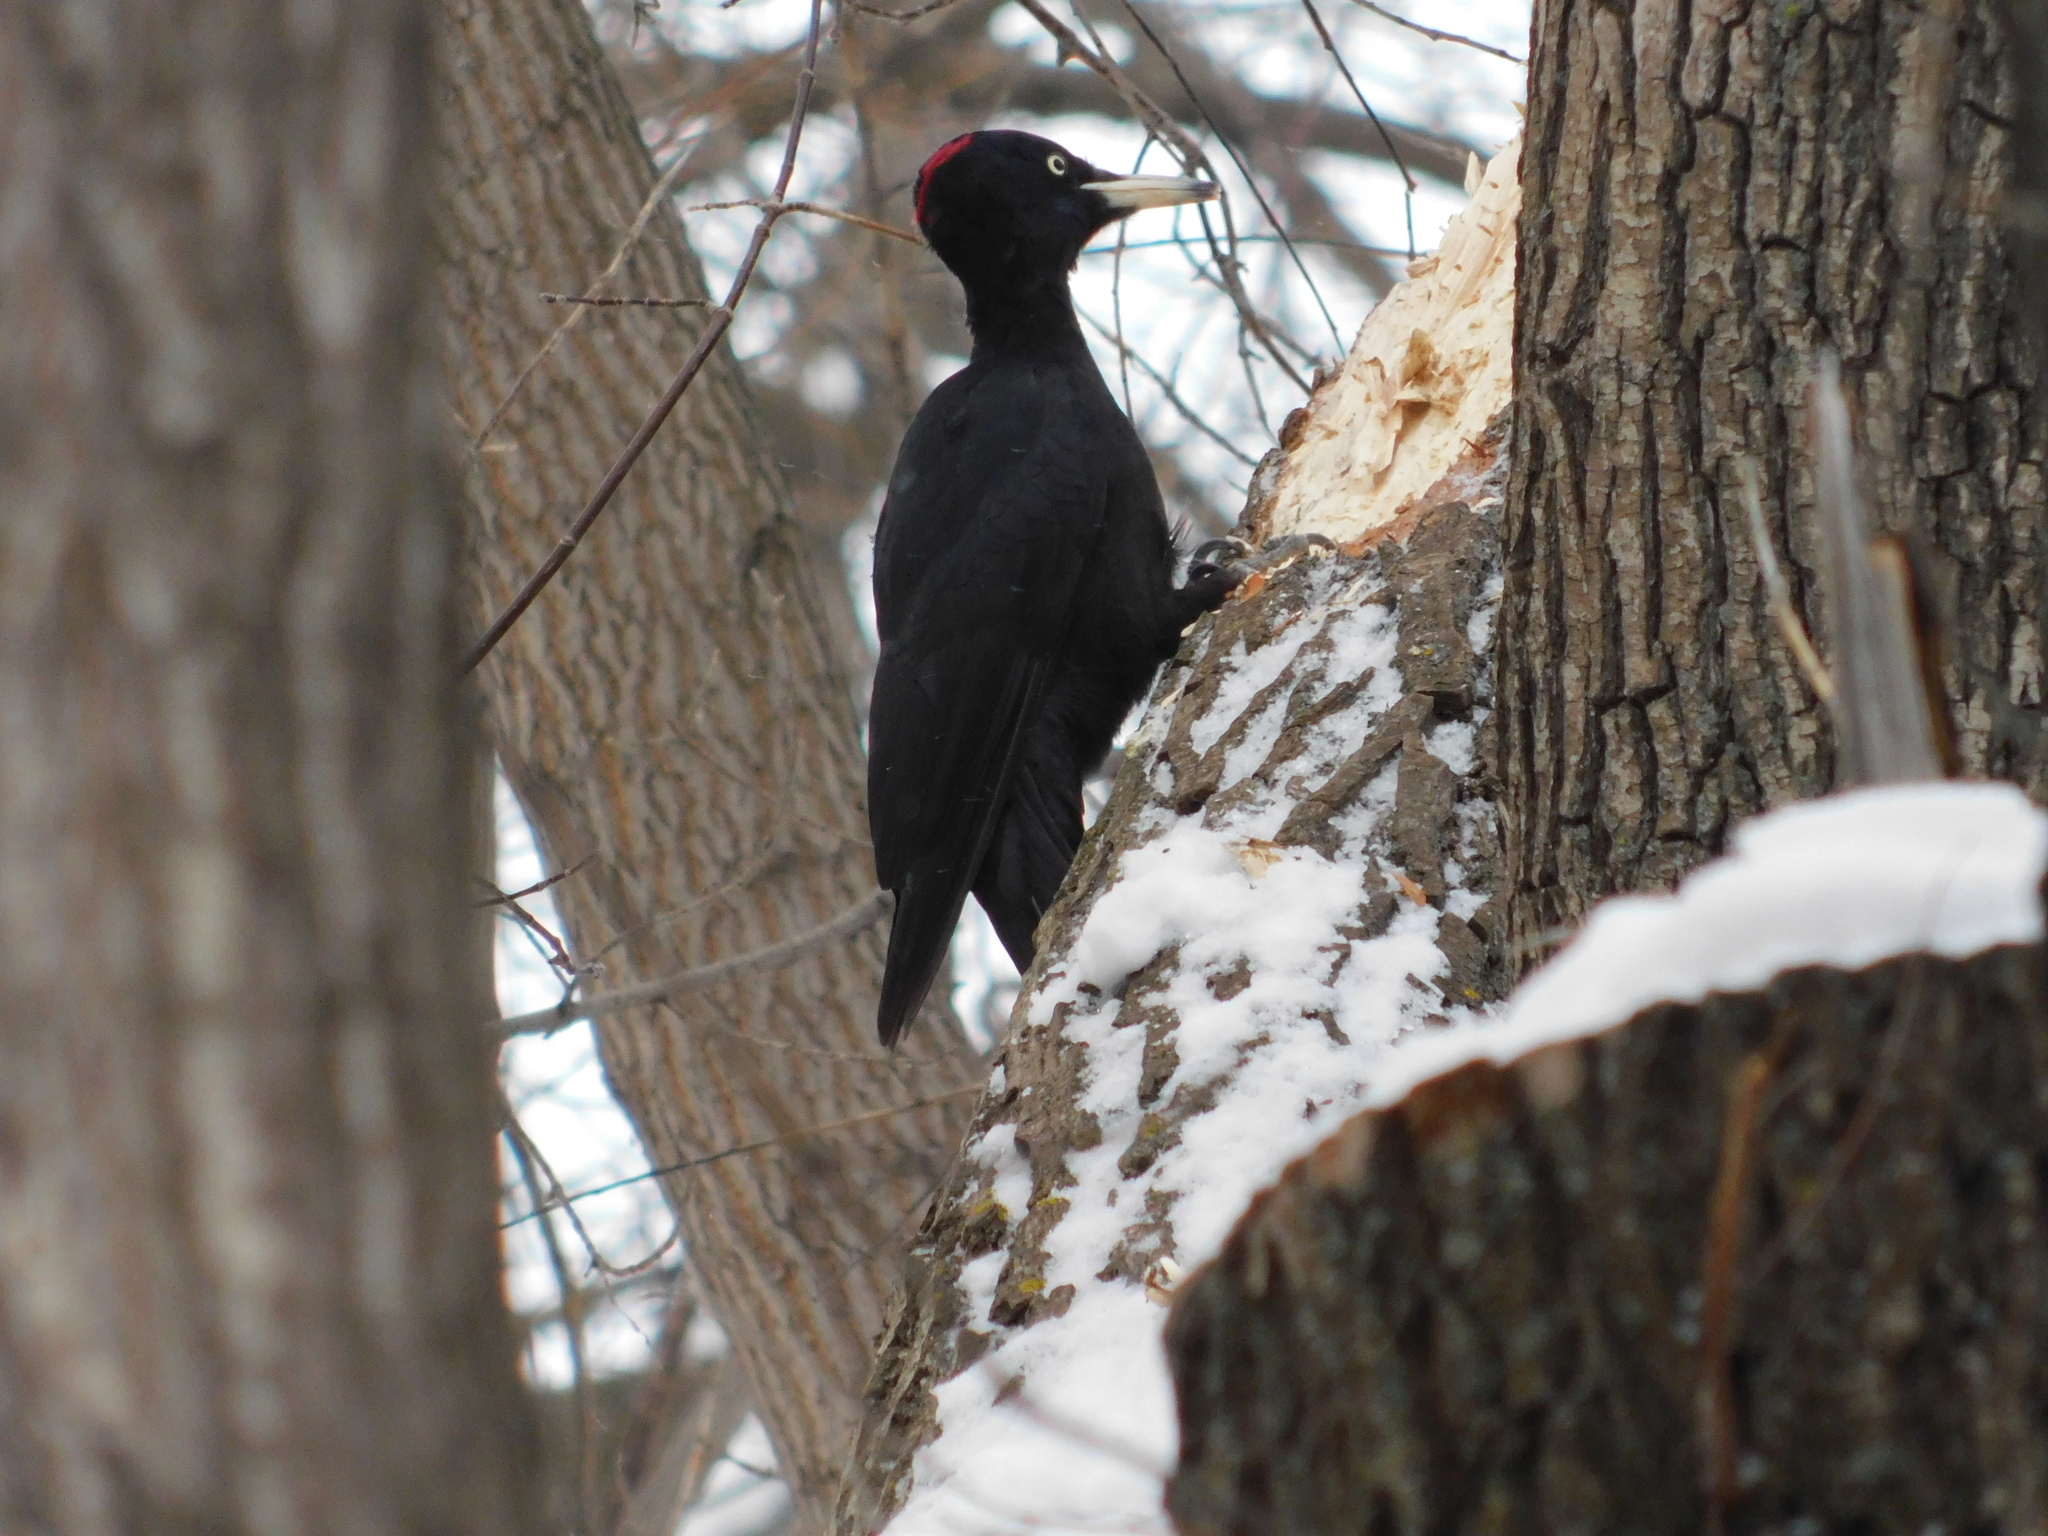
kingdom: Animalia
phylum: Chordata
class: Aves
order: Piciformes
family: Picidae
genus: Dryocopus
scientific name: Dryocopus martius
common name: Black woodpecker
